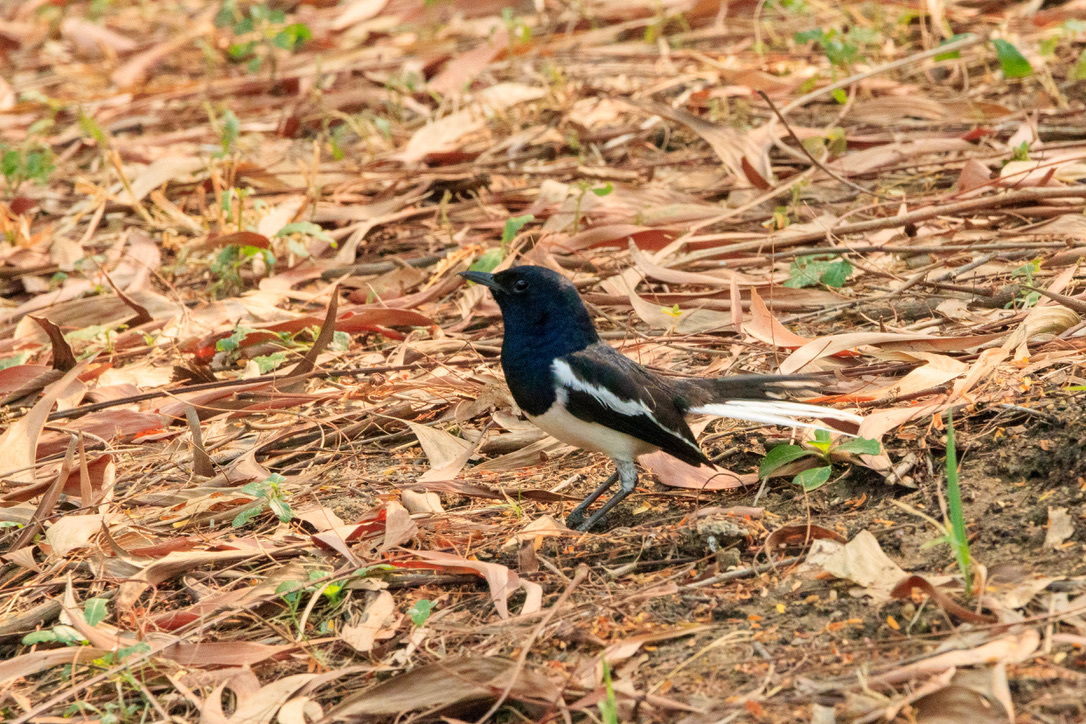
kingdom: Animalia
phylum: Chordata
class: Aves
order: Passeriformes
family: Muscicapidae
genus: Copsychus
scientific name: Copsychus saularis
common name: Oriental magpie-robin
